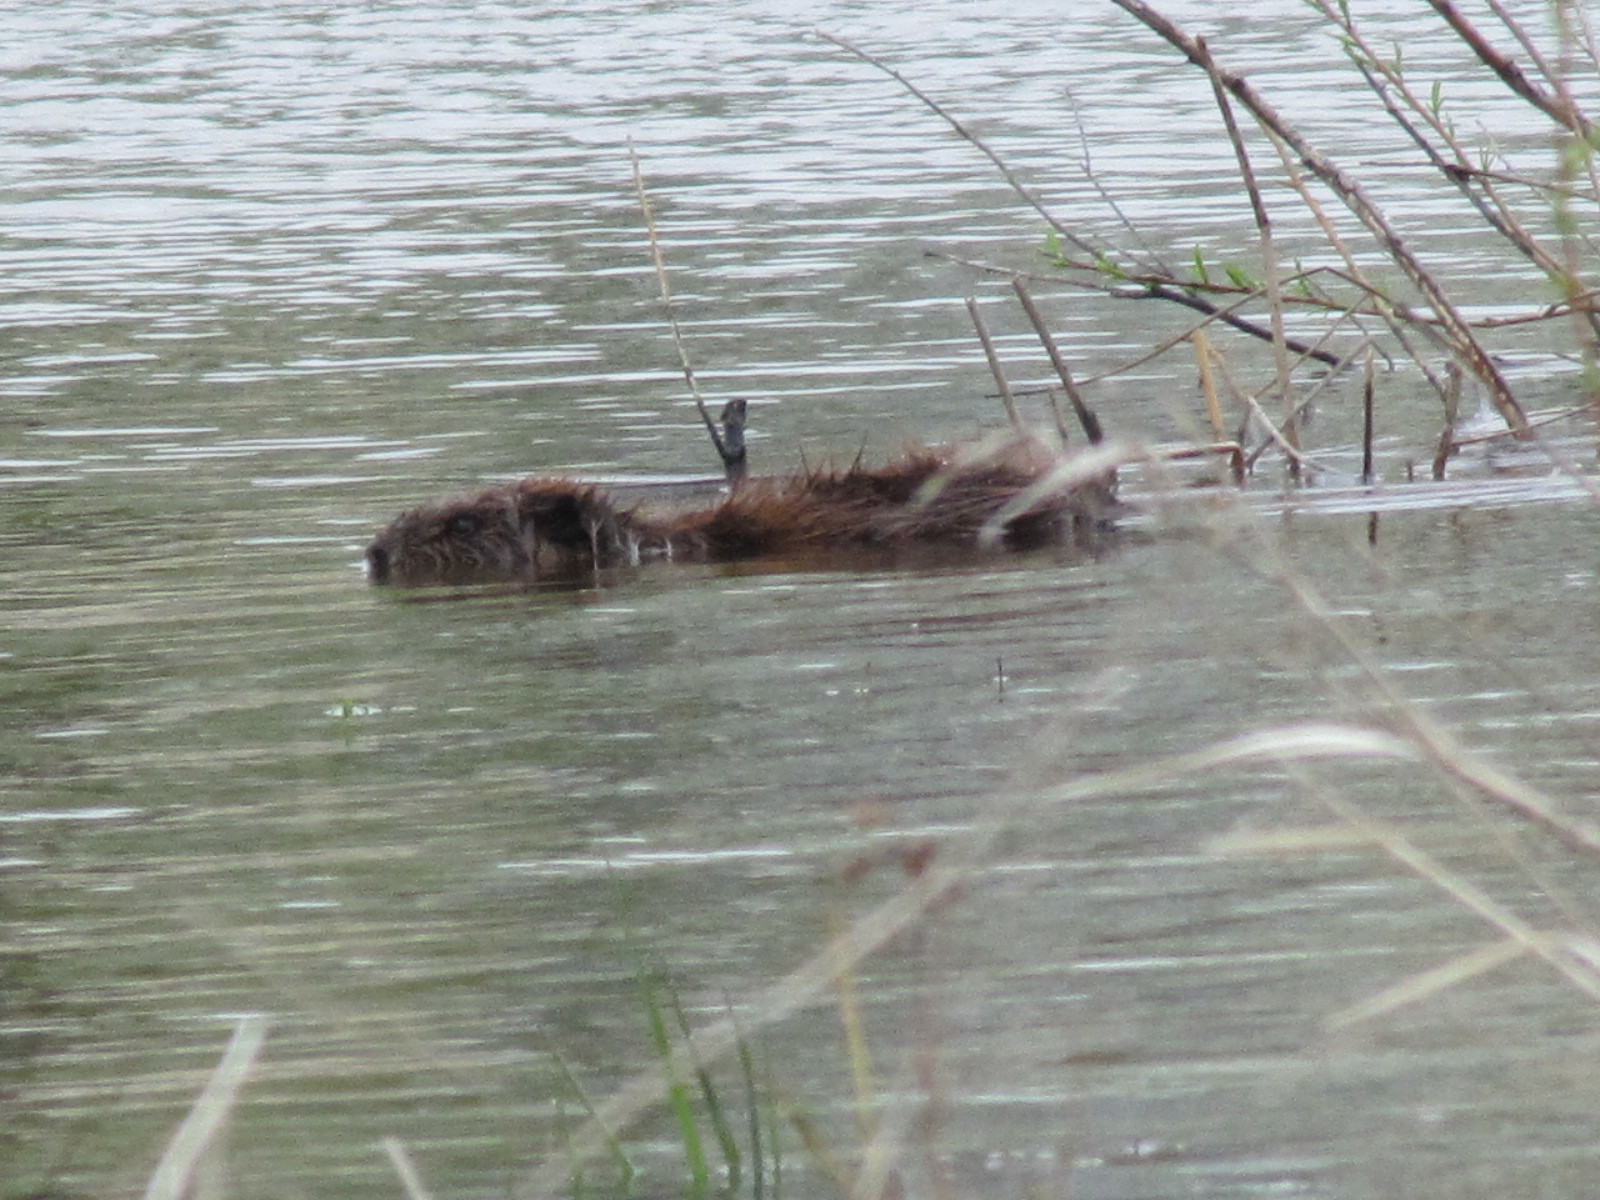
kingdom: Animalia
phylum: Chordata
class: Mammalia
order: Rodentia
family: Cricetidae
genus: Ondatra
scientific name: Ondatra zibethicus
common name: Muskrat
